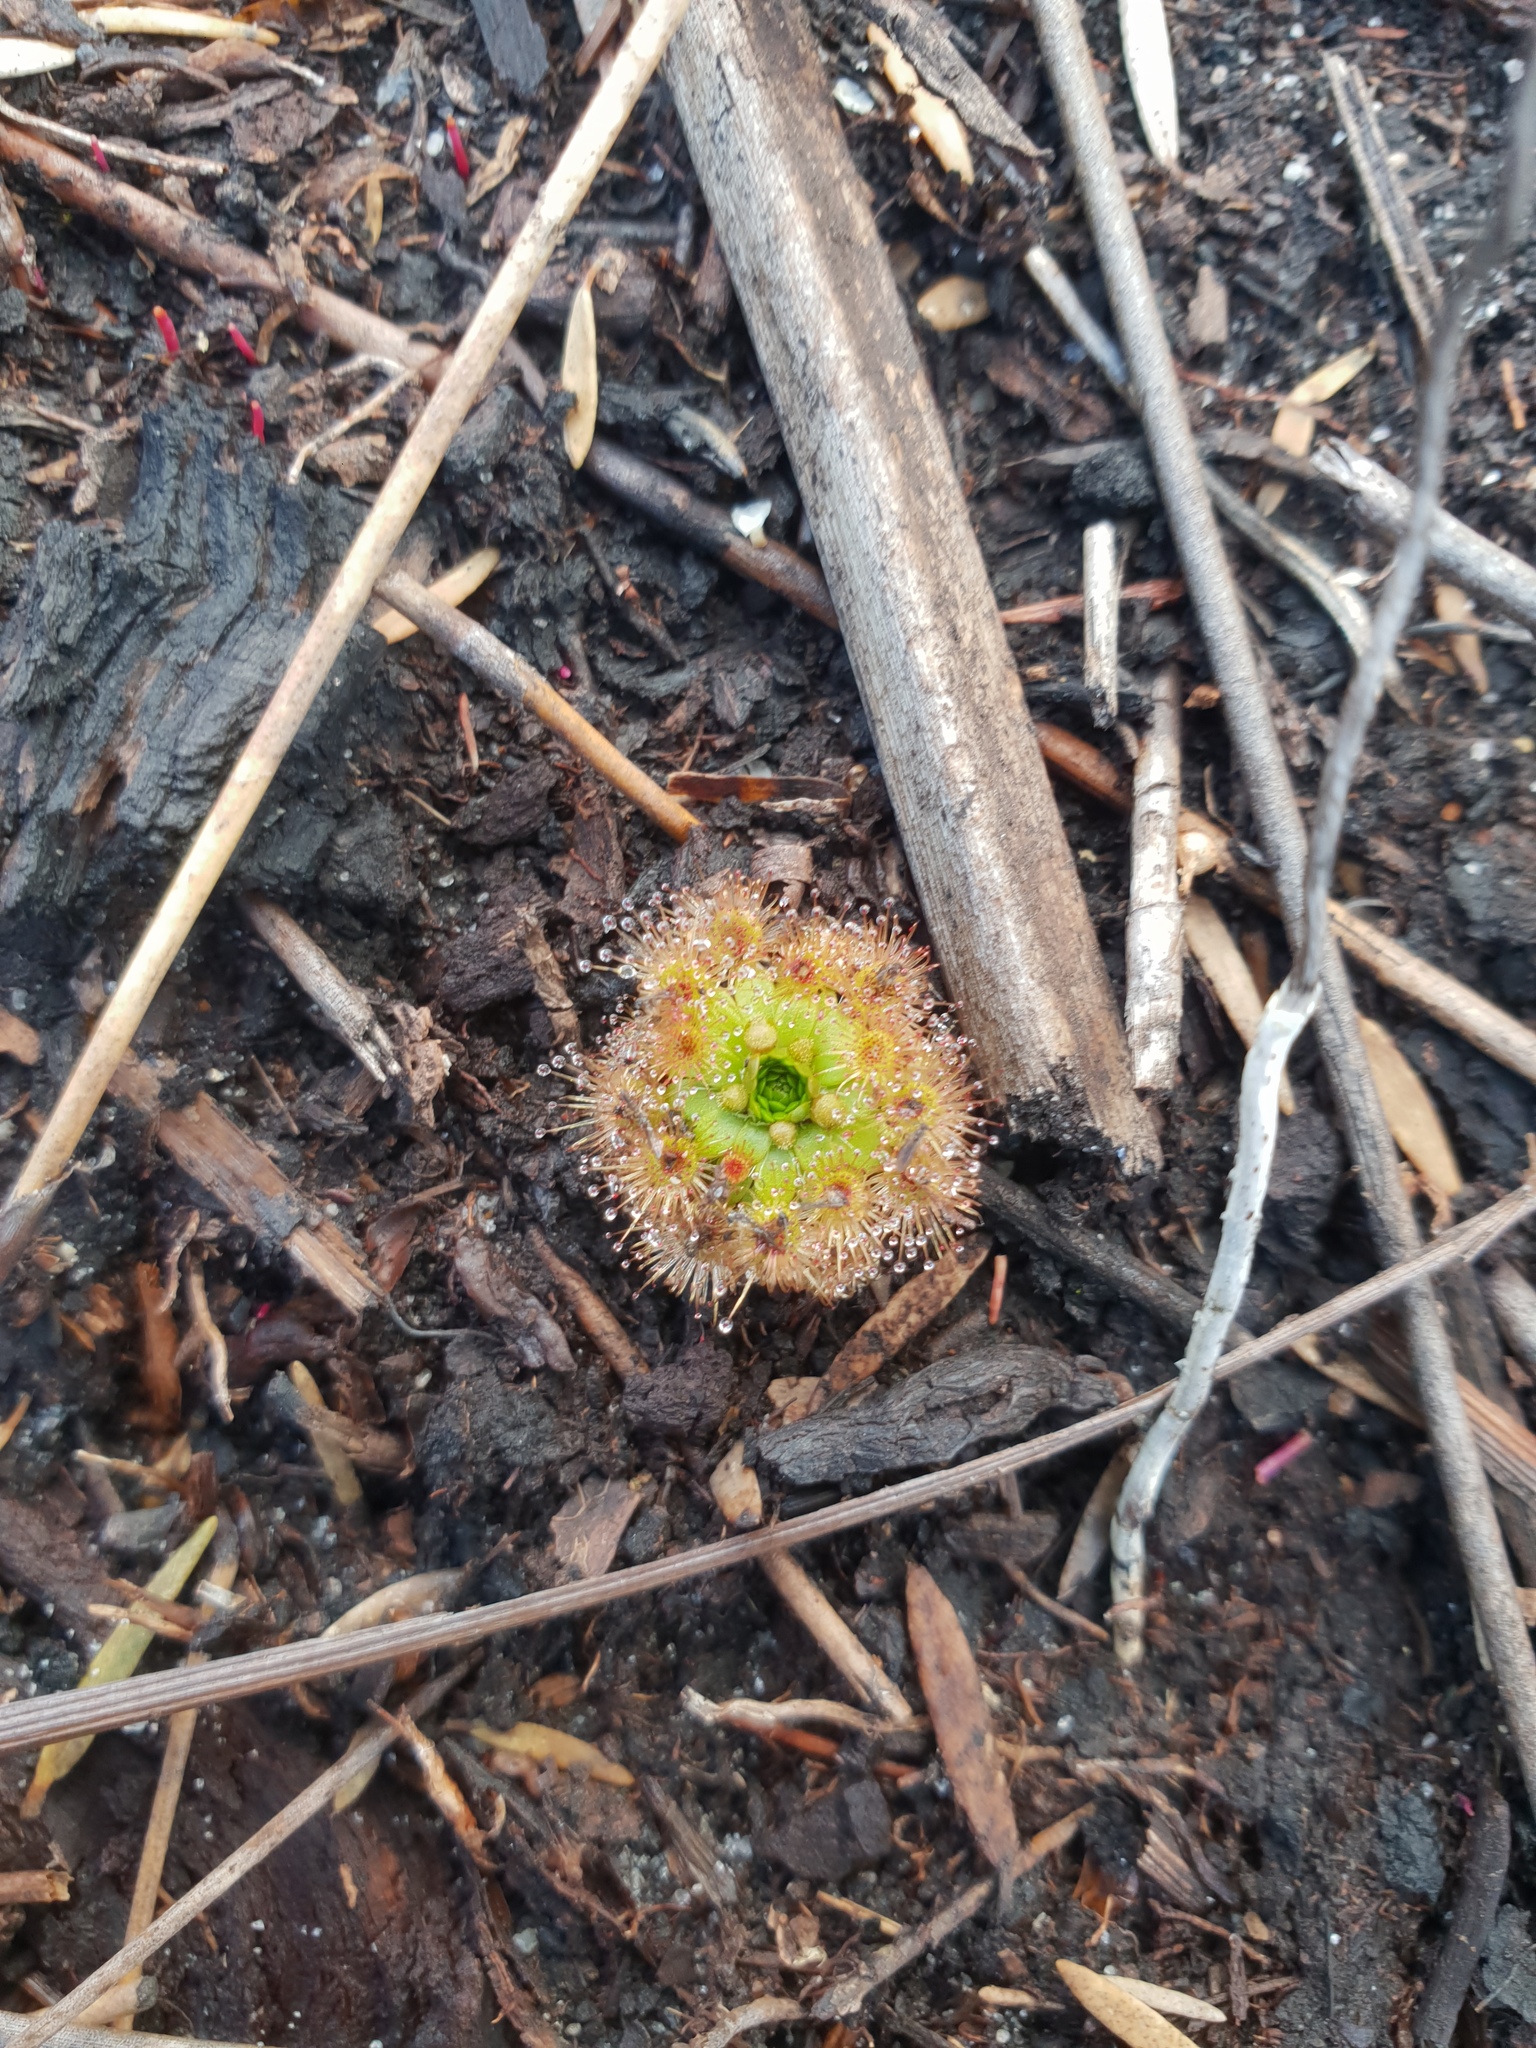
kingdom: Plantae
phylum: Tracheophyta
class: Magnoliopsida
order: Caryophyllales
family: Droseraceae
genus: Drosera
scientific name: Drosera pulchella
